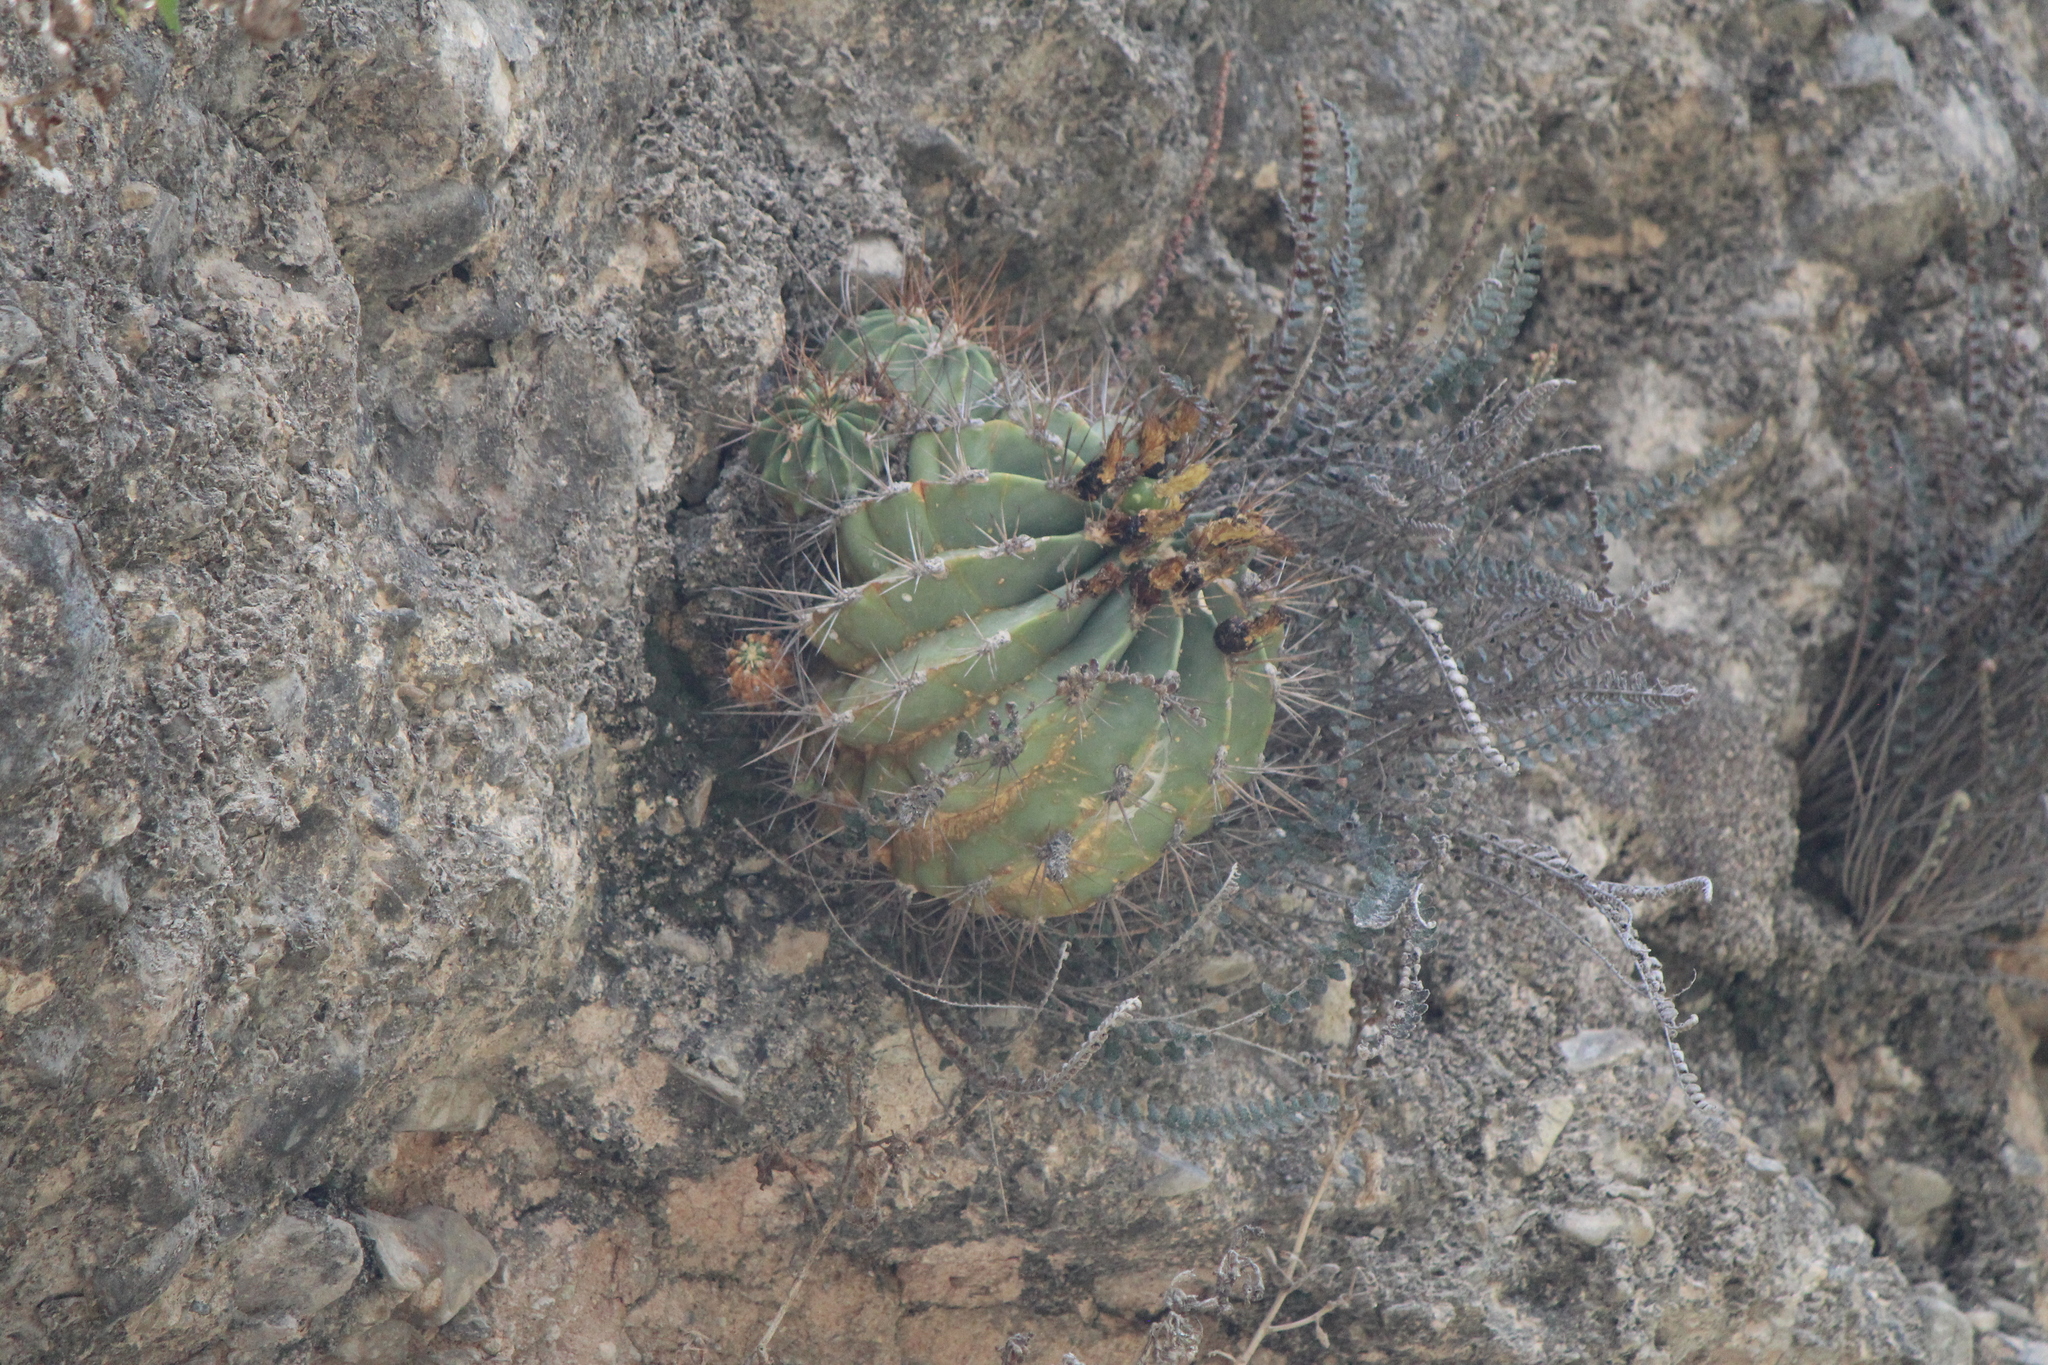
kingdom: Plantae
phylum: Tracheophyta
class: Magnoliopsida
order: Caryophyllales
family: Cactaceae
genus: Parrycactus
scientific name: Parrycactus echidne
